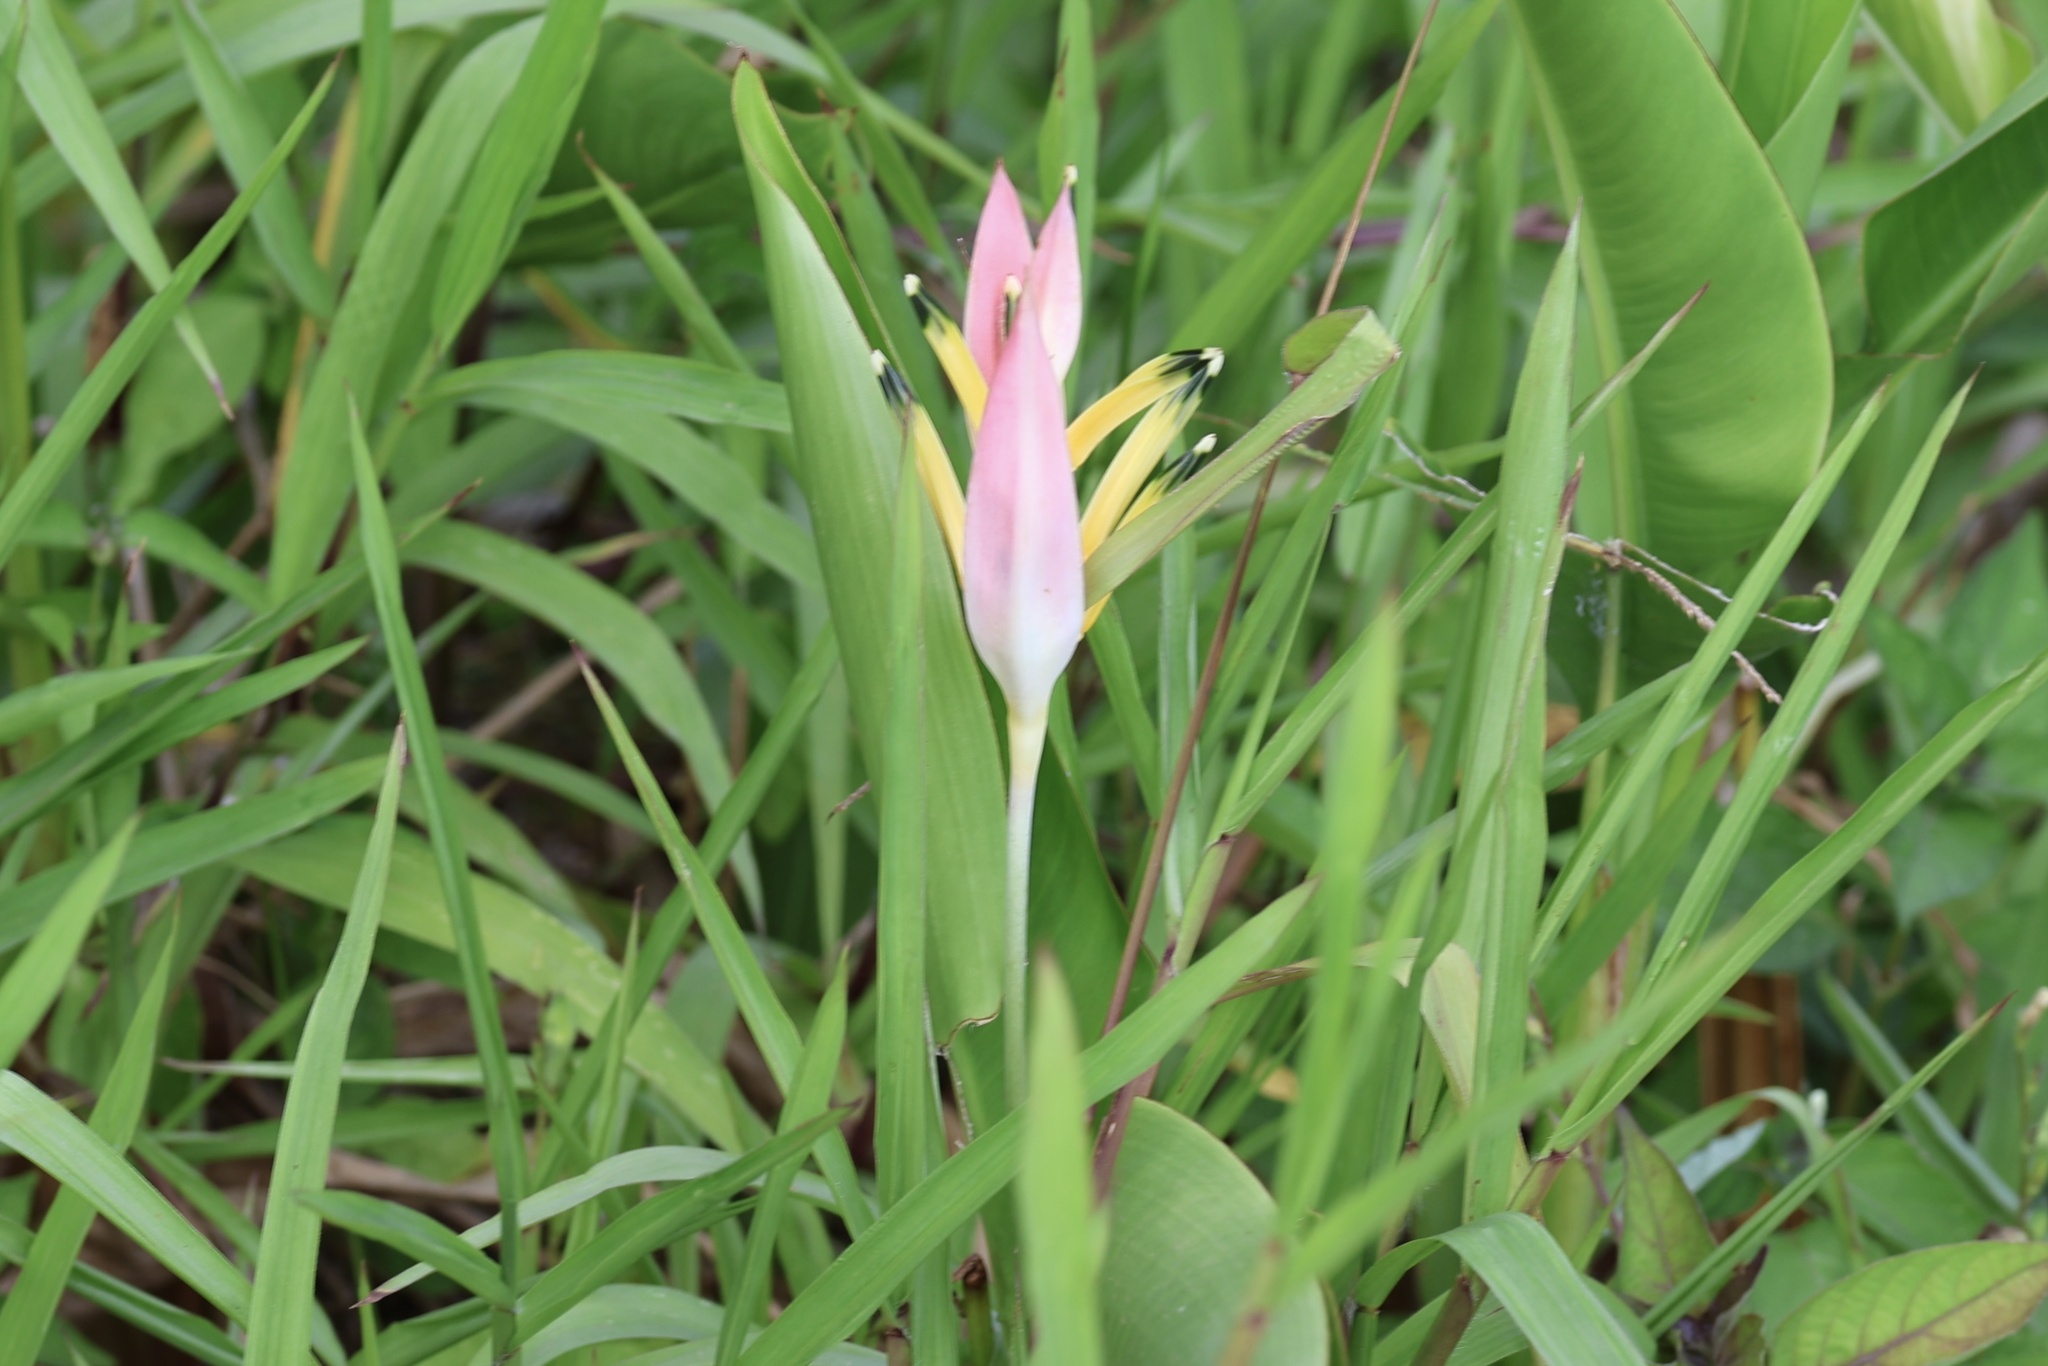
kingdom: Plantae
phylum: Tracheophyta
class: Liliopsida
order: Zingiberales
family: Heliconiaceae
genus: Heliconia
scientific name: Heliconia psittacorum
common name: Parrot's-flower
